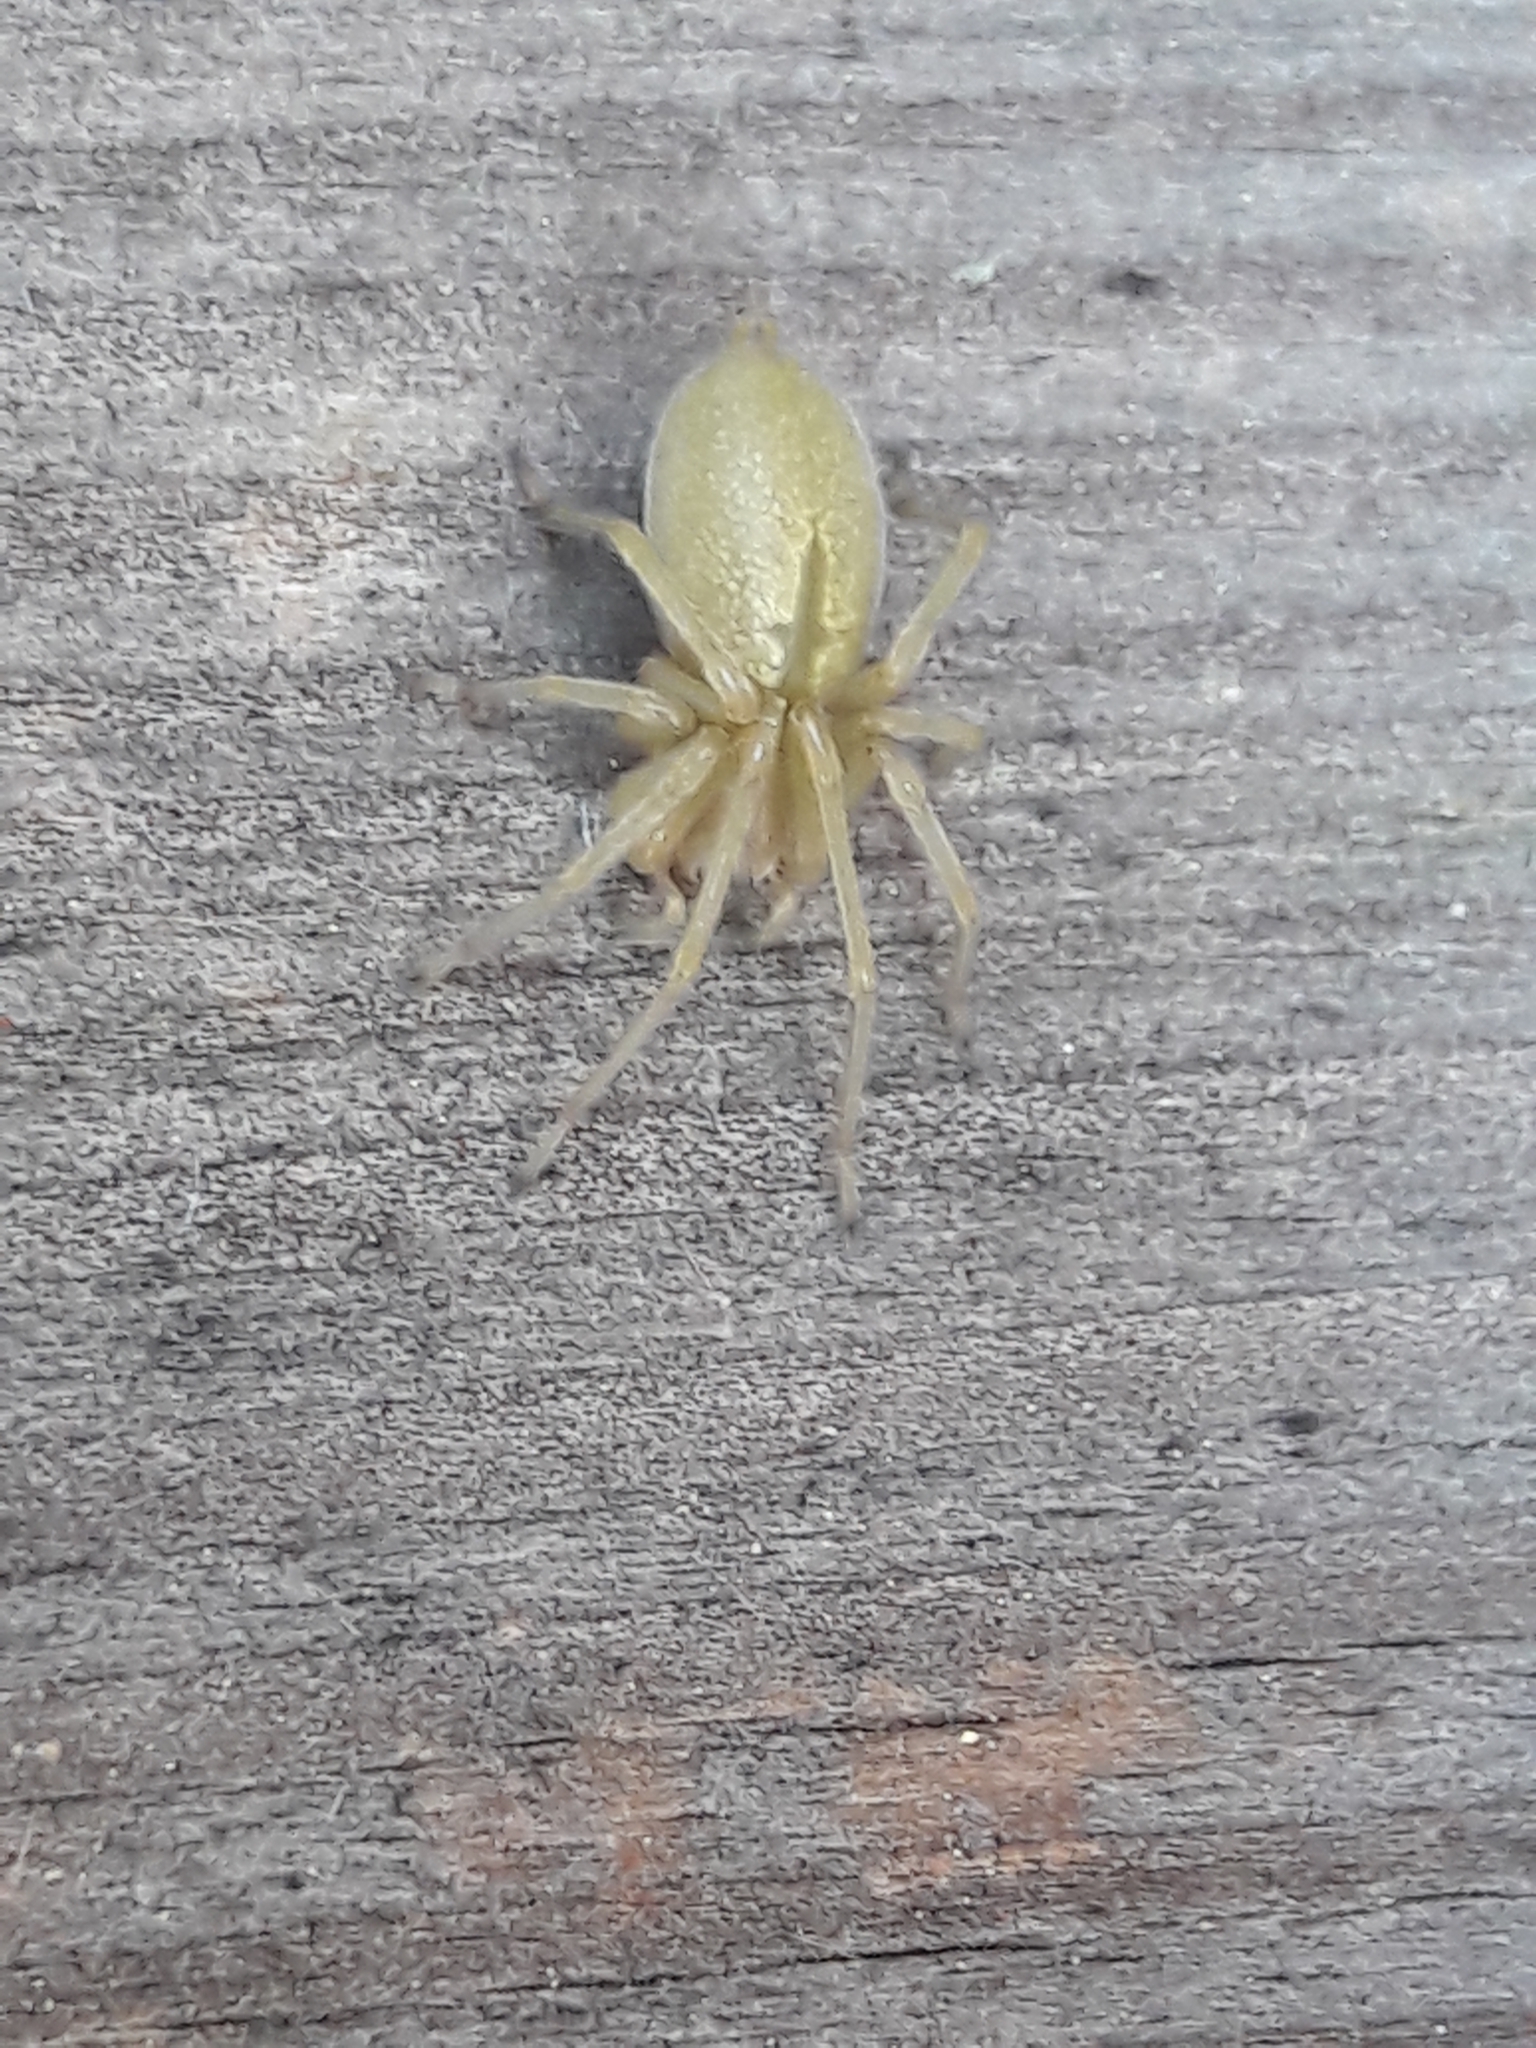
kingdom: Animalia
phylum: Arthropoda
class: Arachnida
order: Araneae
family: Cheiracanthiidae
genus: Cheiracanthium
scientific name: Cheiracanthium mildei
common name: Northern yellow sac spider
